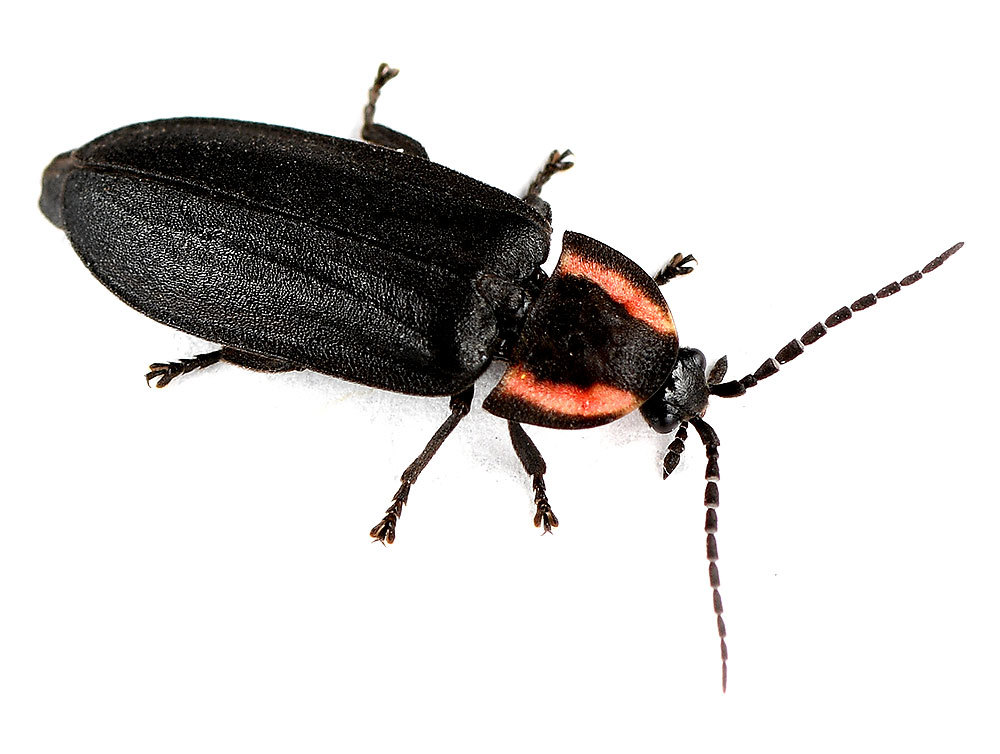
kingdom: Animalia
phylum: Arthropoda
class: Insecta
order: Coleoptera
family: Lampyridae
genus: Photinus
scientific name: Photinus hatchi
